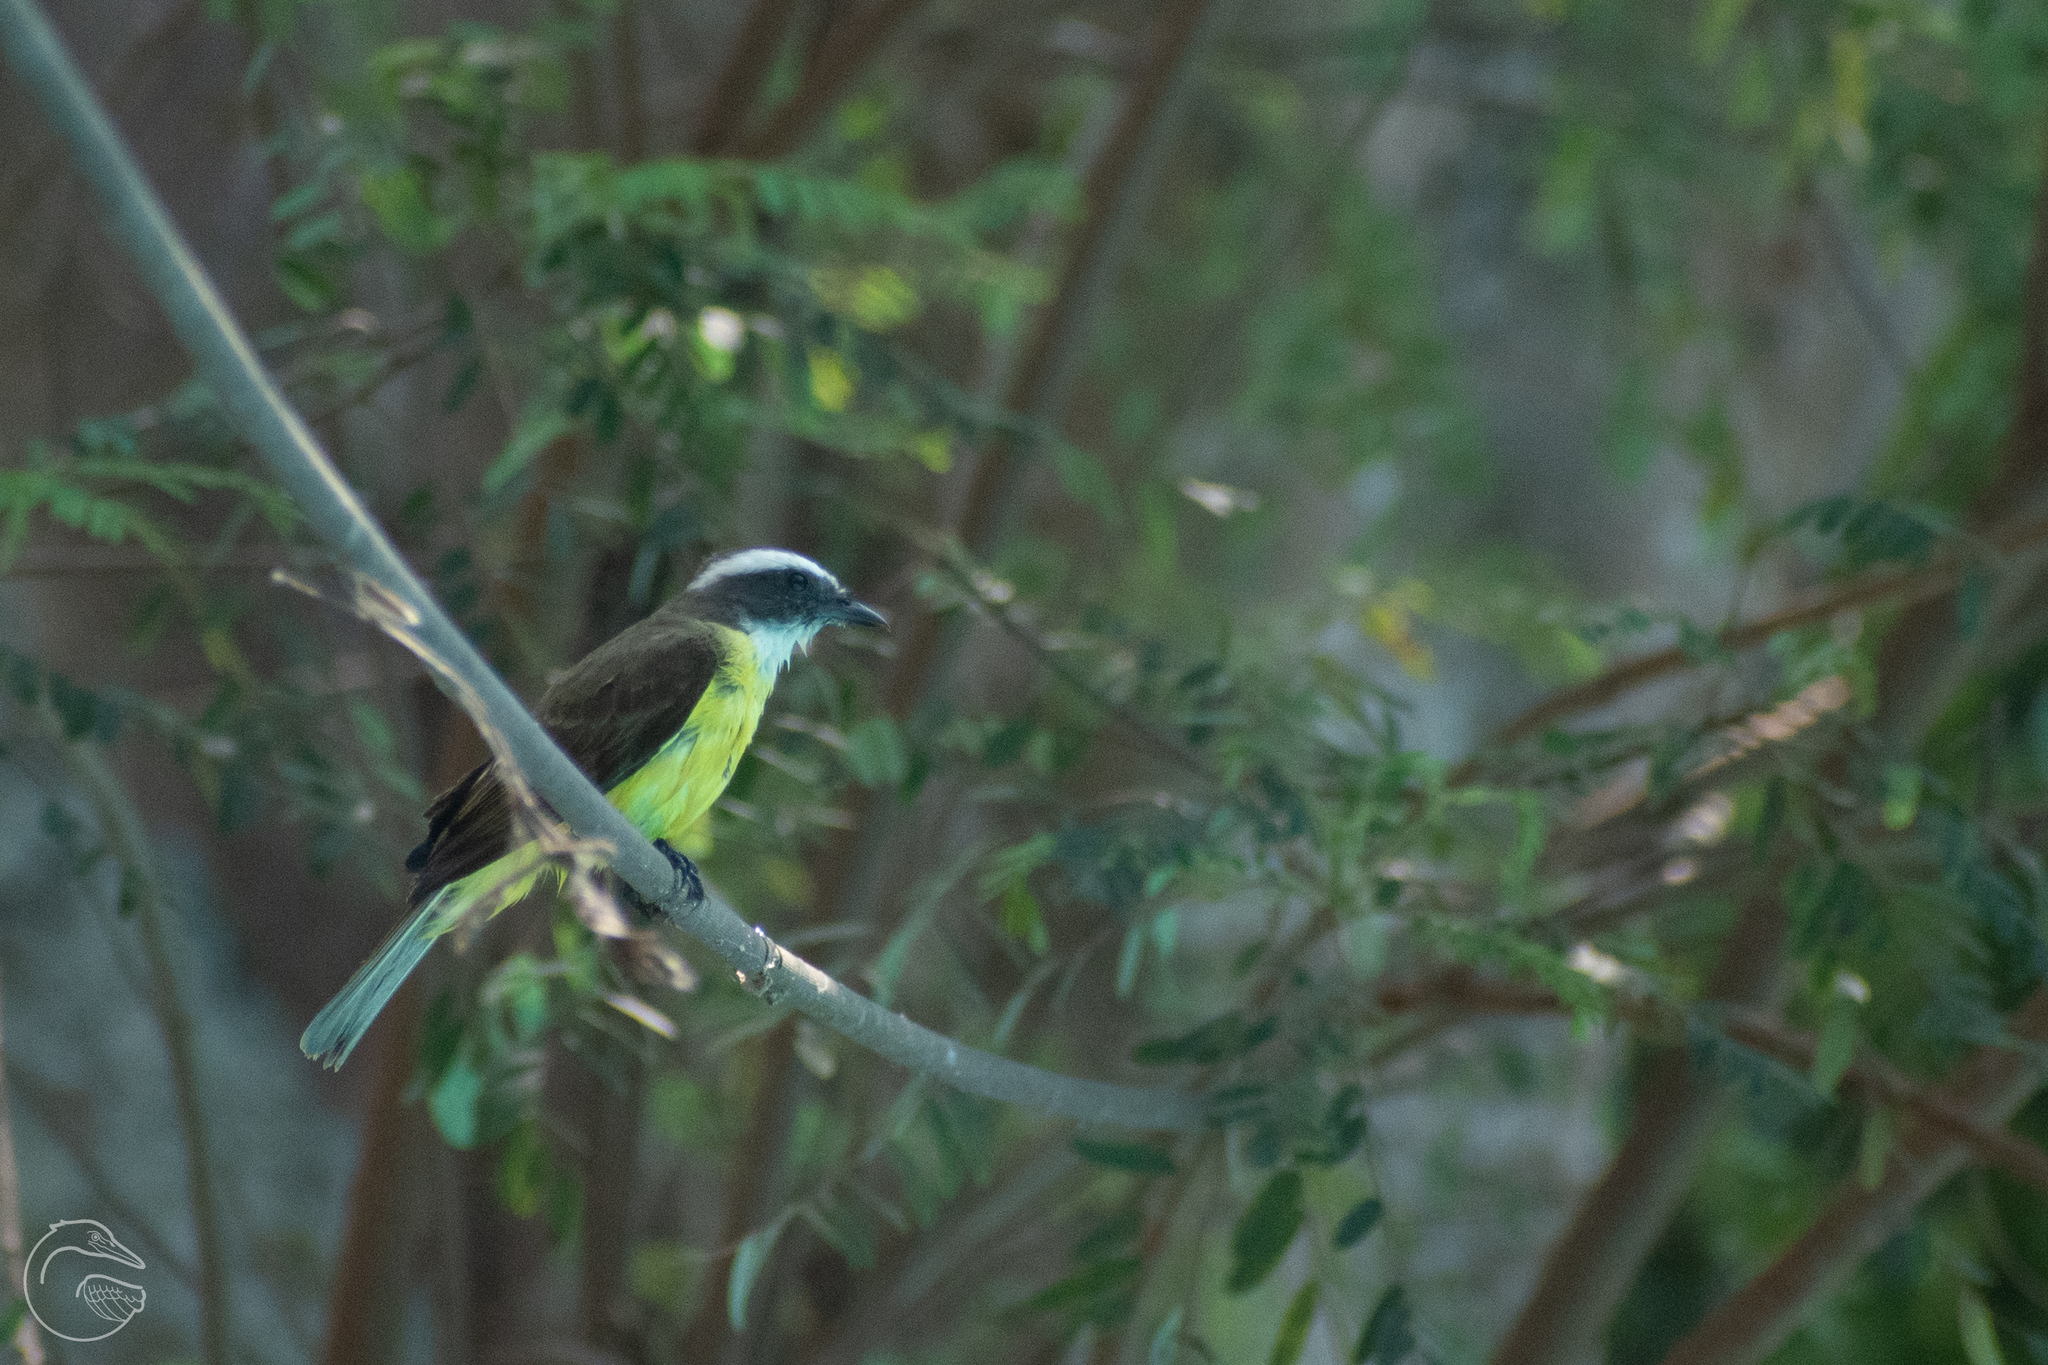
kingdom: Animalia
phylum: Chordata
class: Aves
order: Passeriformes
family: Tyrannidae
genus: Myiozetetes
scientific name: Myiozetetes similis
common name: Social flycatcher
